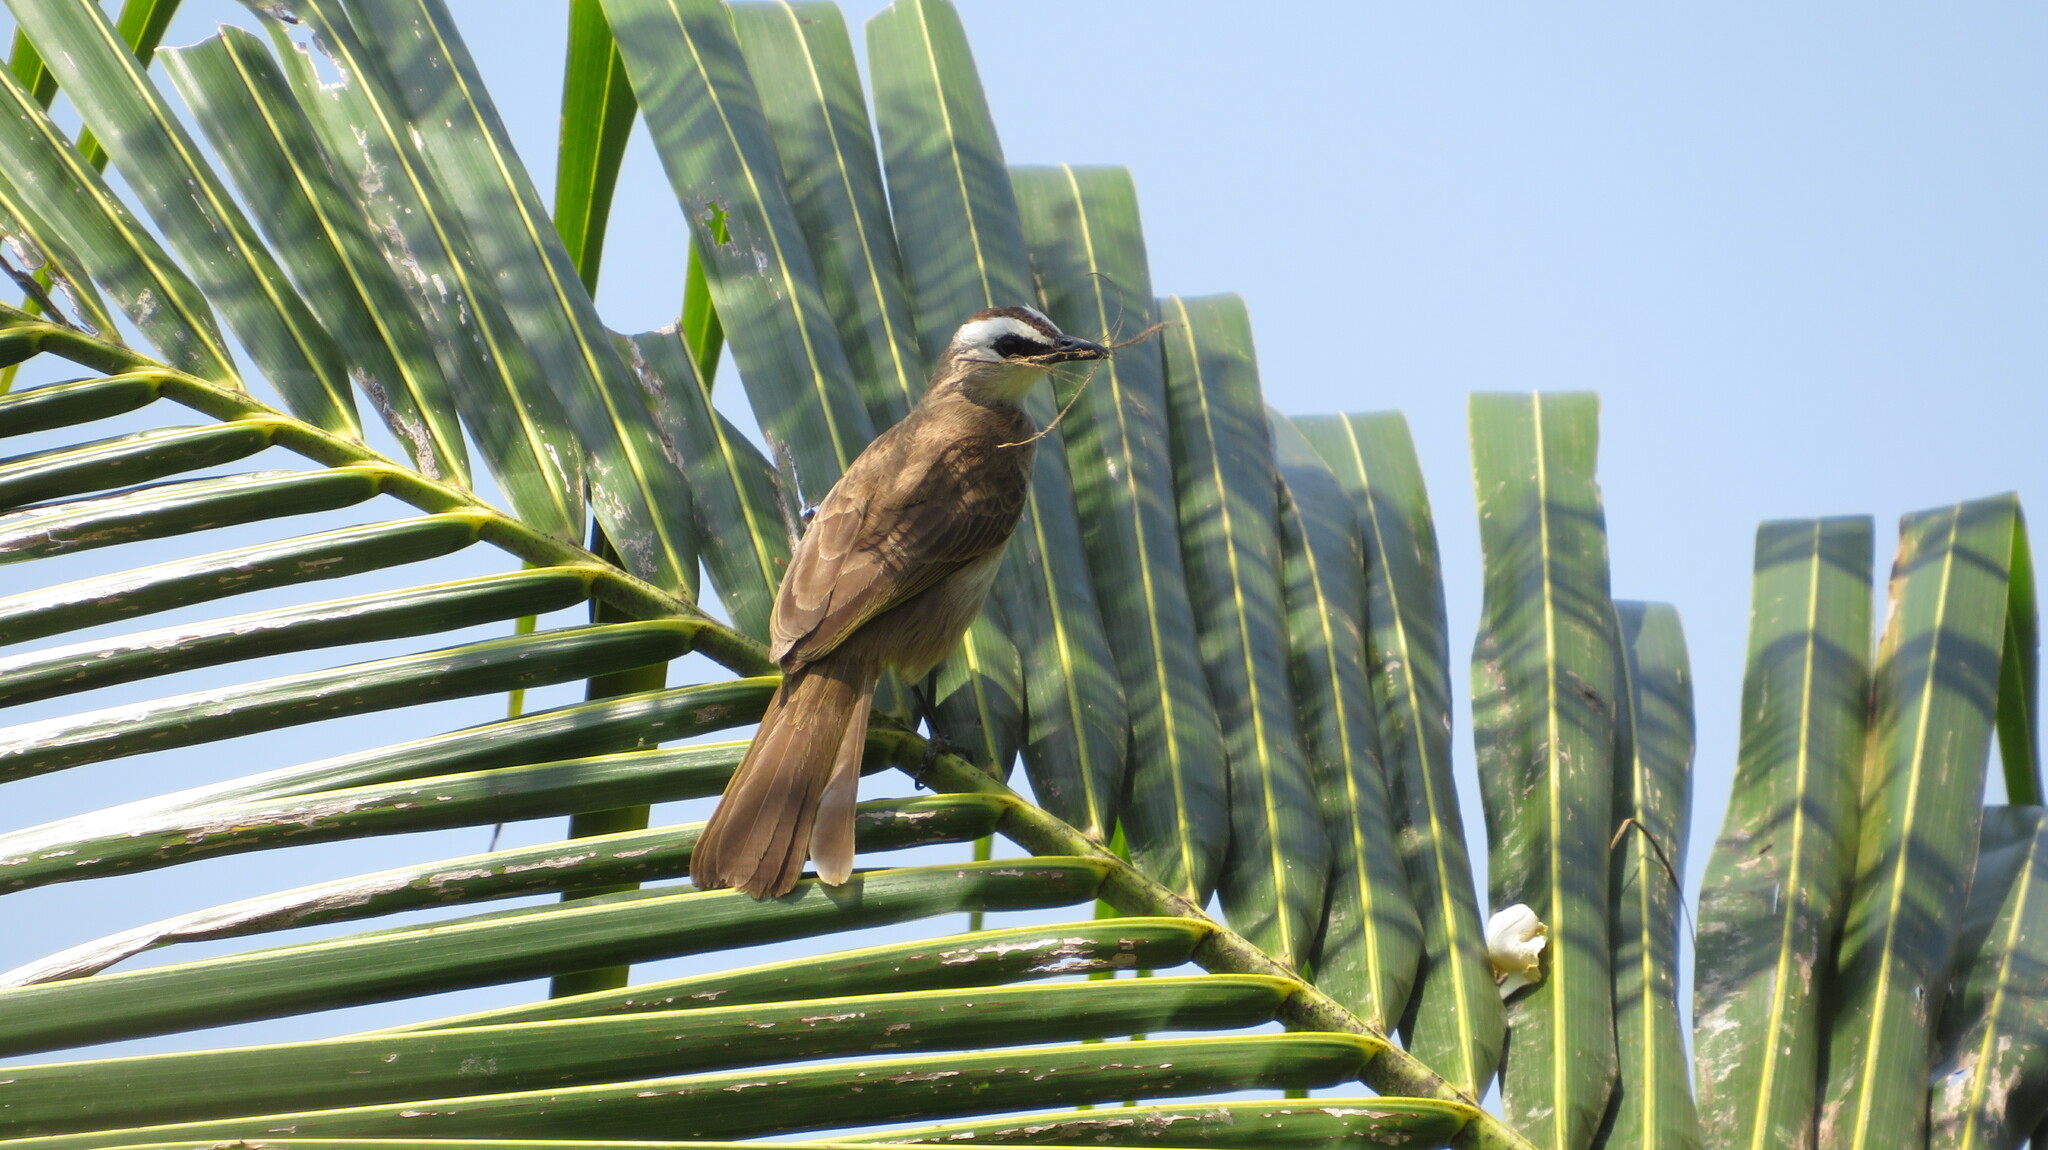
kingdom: Animalia
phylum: Chordata
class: Aves
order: Passeriformes
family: Pycnonotidae
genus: Pycnonotus
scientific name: Pycnonotus goiavier
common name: Yellow-vented bulbul
